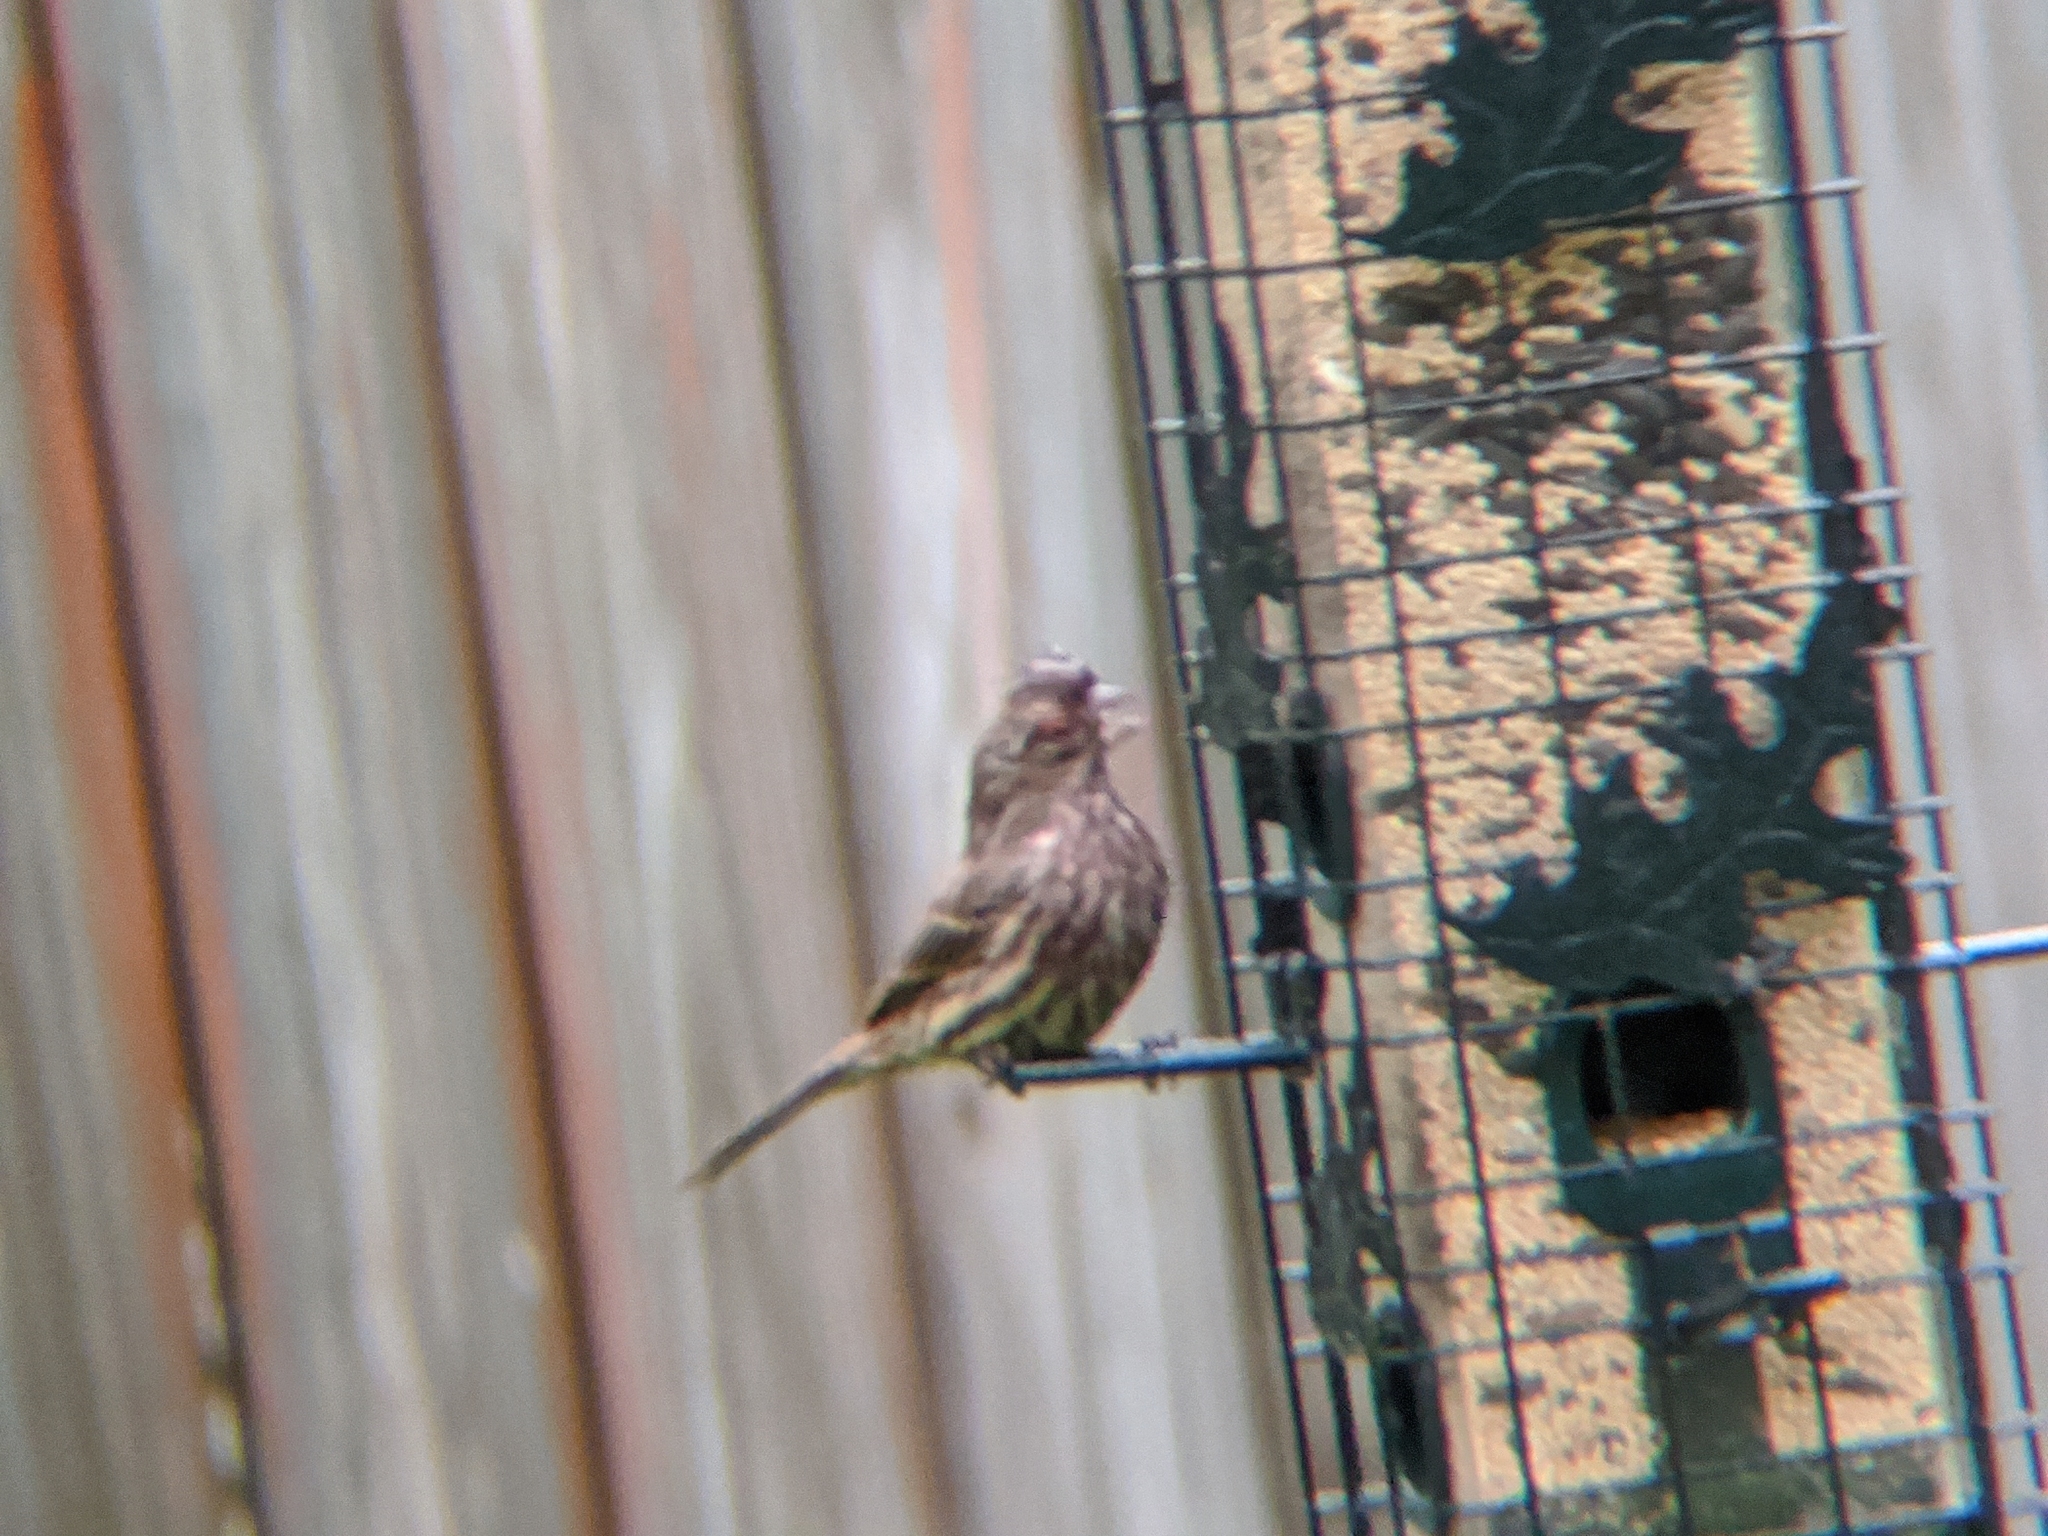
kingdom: Animalia
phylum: Chordata
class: Aves
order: Passeriformes
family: Fringillidae
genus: Haemorhous
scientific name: Haemorhous mexicanus
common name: House finch
